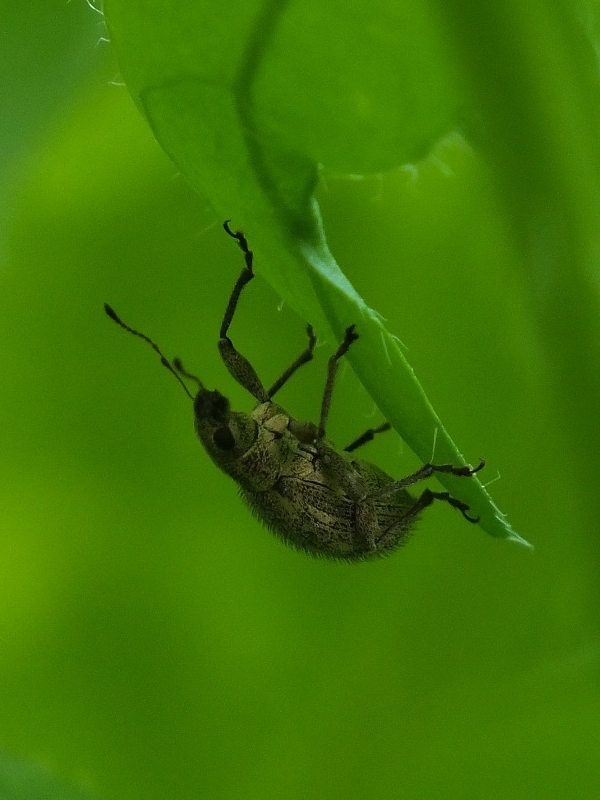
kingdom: Animalia
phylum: Arthropoda
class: Insecta
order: Coleoptera
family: Curculionidae
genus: Polydrusus
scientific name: Polydrusus inustus
